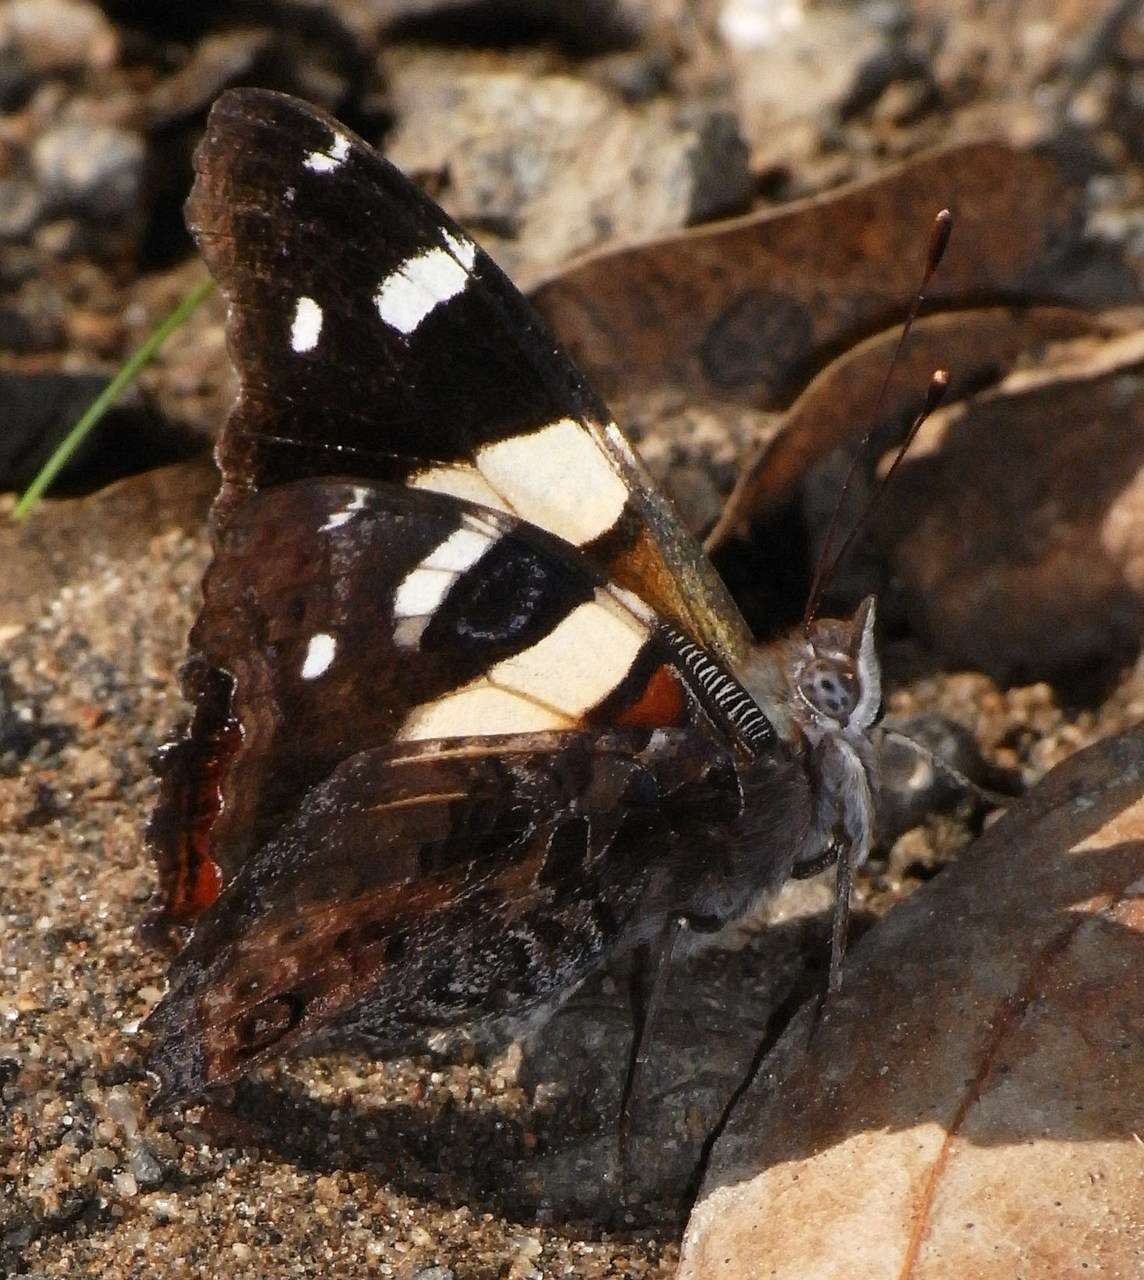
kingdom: Animalia
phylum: Arthropoda
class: Insecta
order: Lepidoptera
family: Nymphalidae
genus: Vanessa
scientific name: Vanessa itea
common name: Yellow admiral
